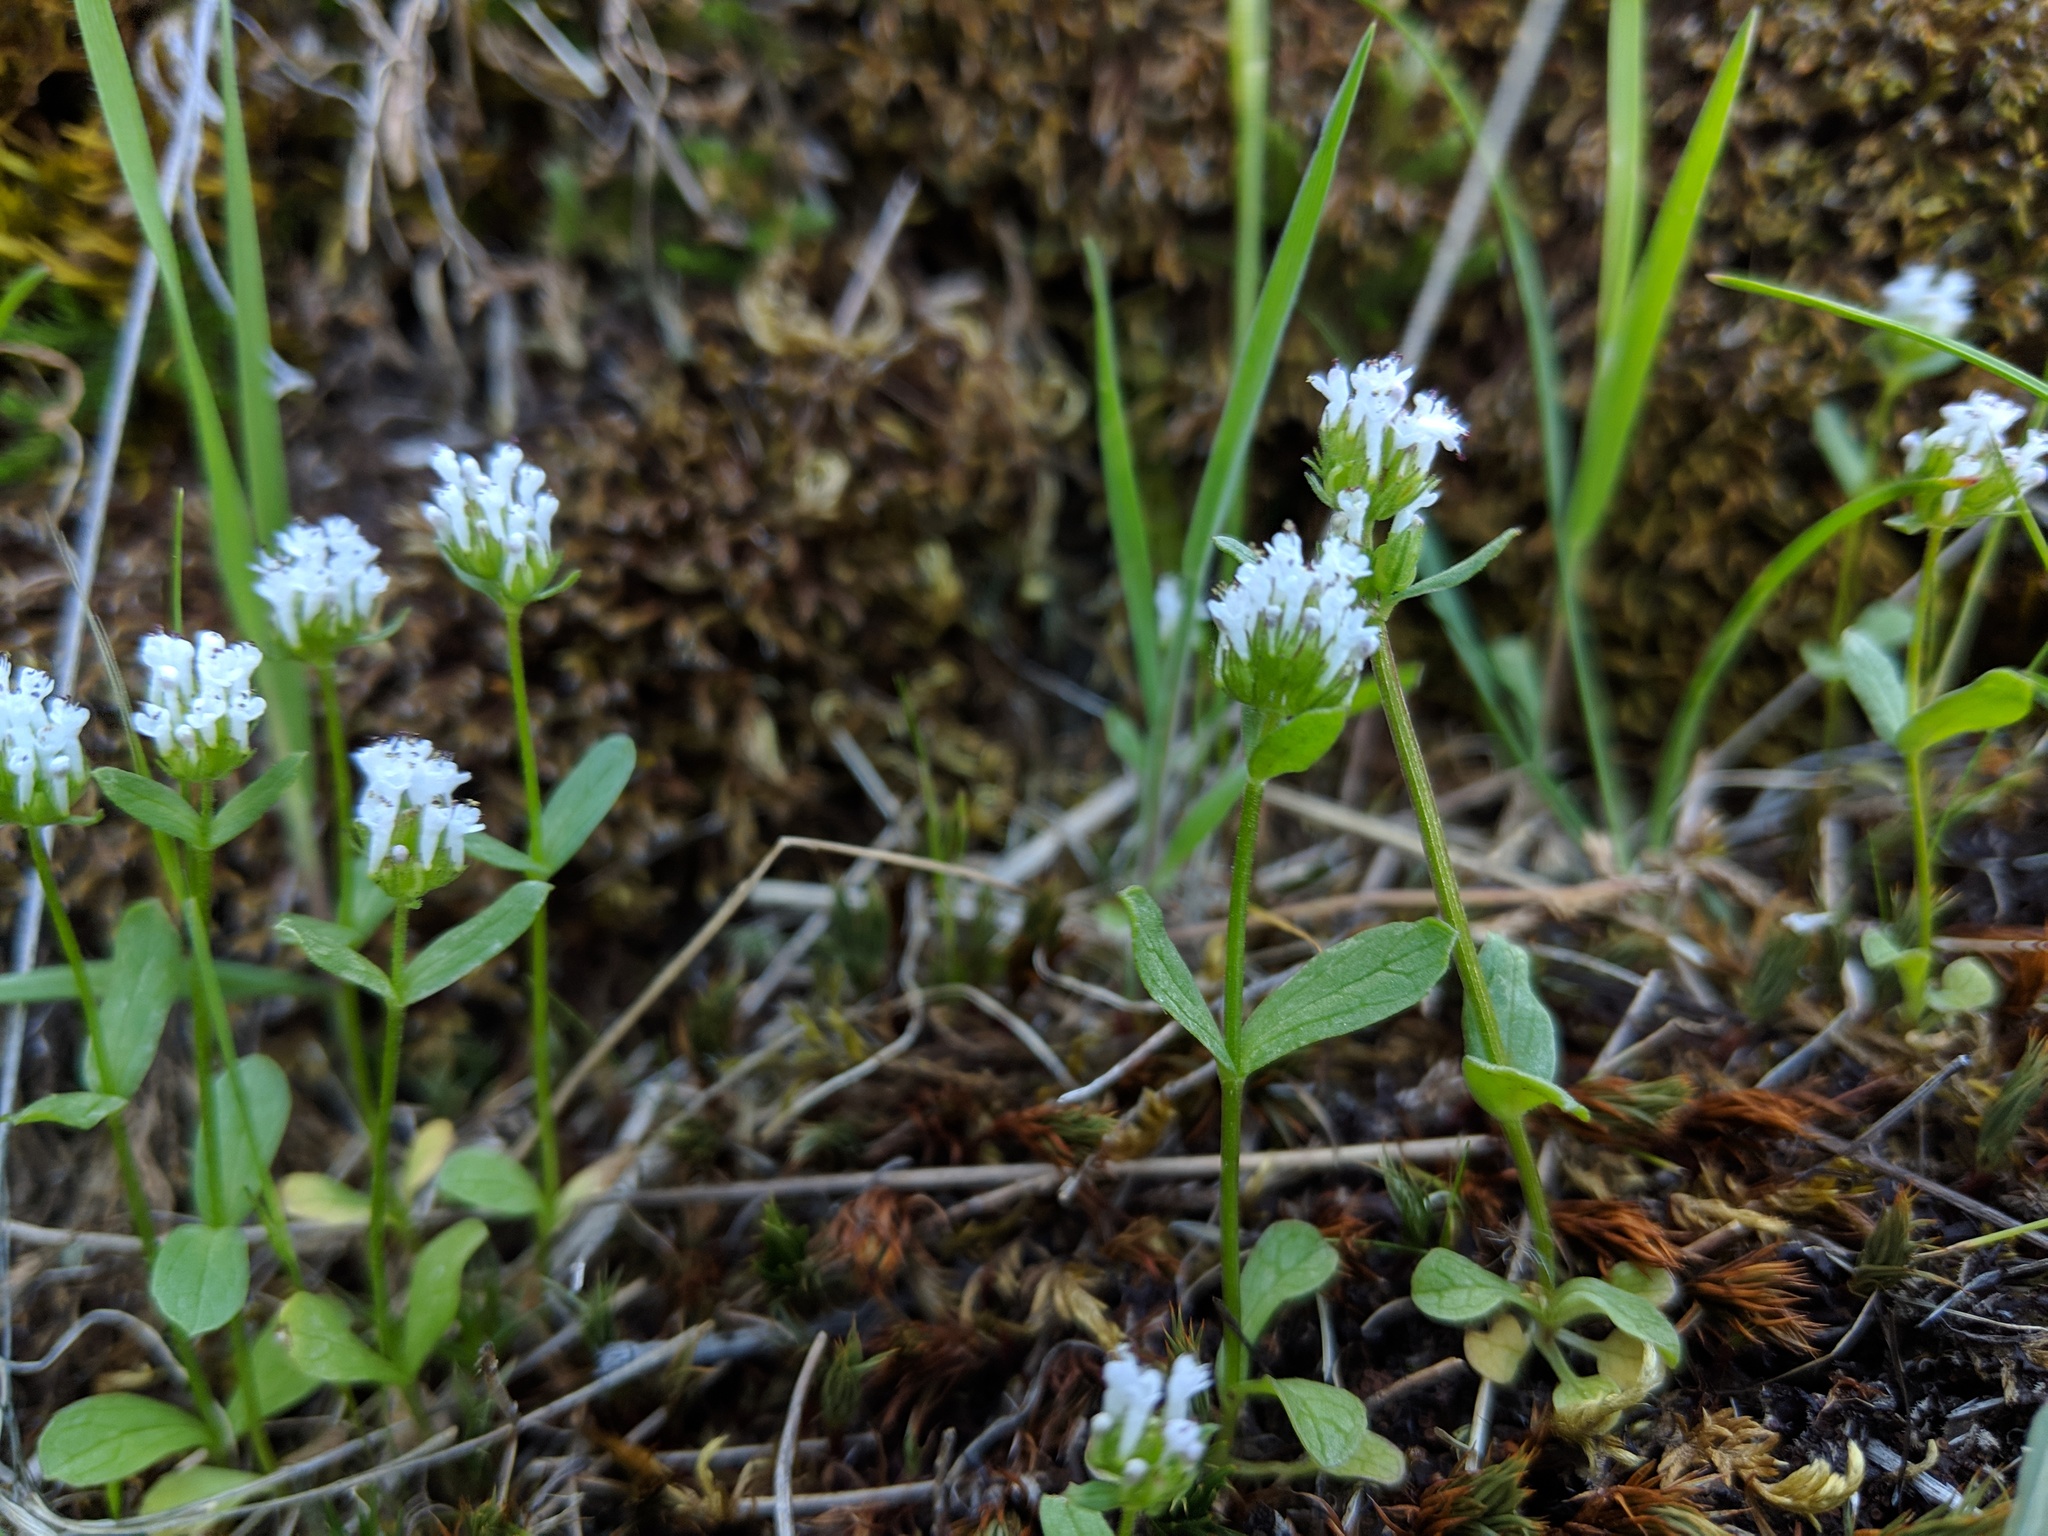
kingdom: Plantae
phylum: Tracheophyta
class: Magnoliopsida
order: Dipsacales
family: Caprifoliaceae
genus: Plectritis
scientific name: Plectritis macroptera
